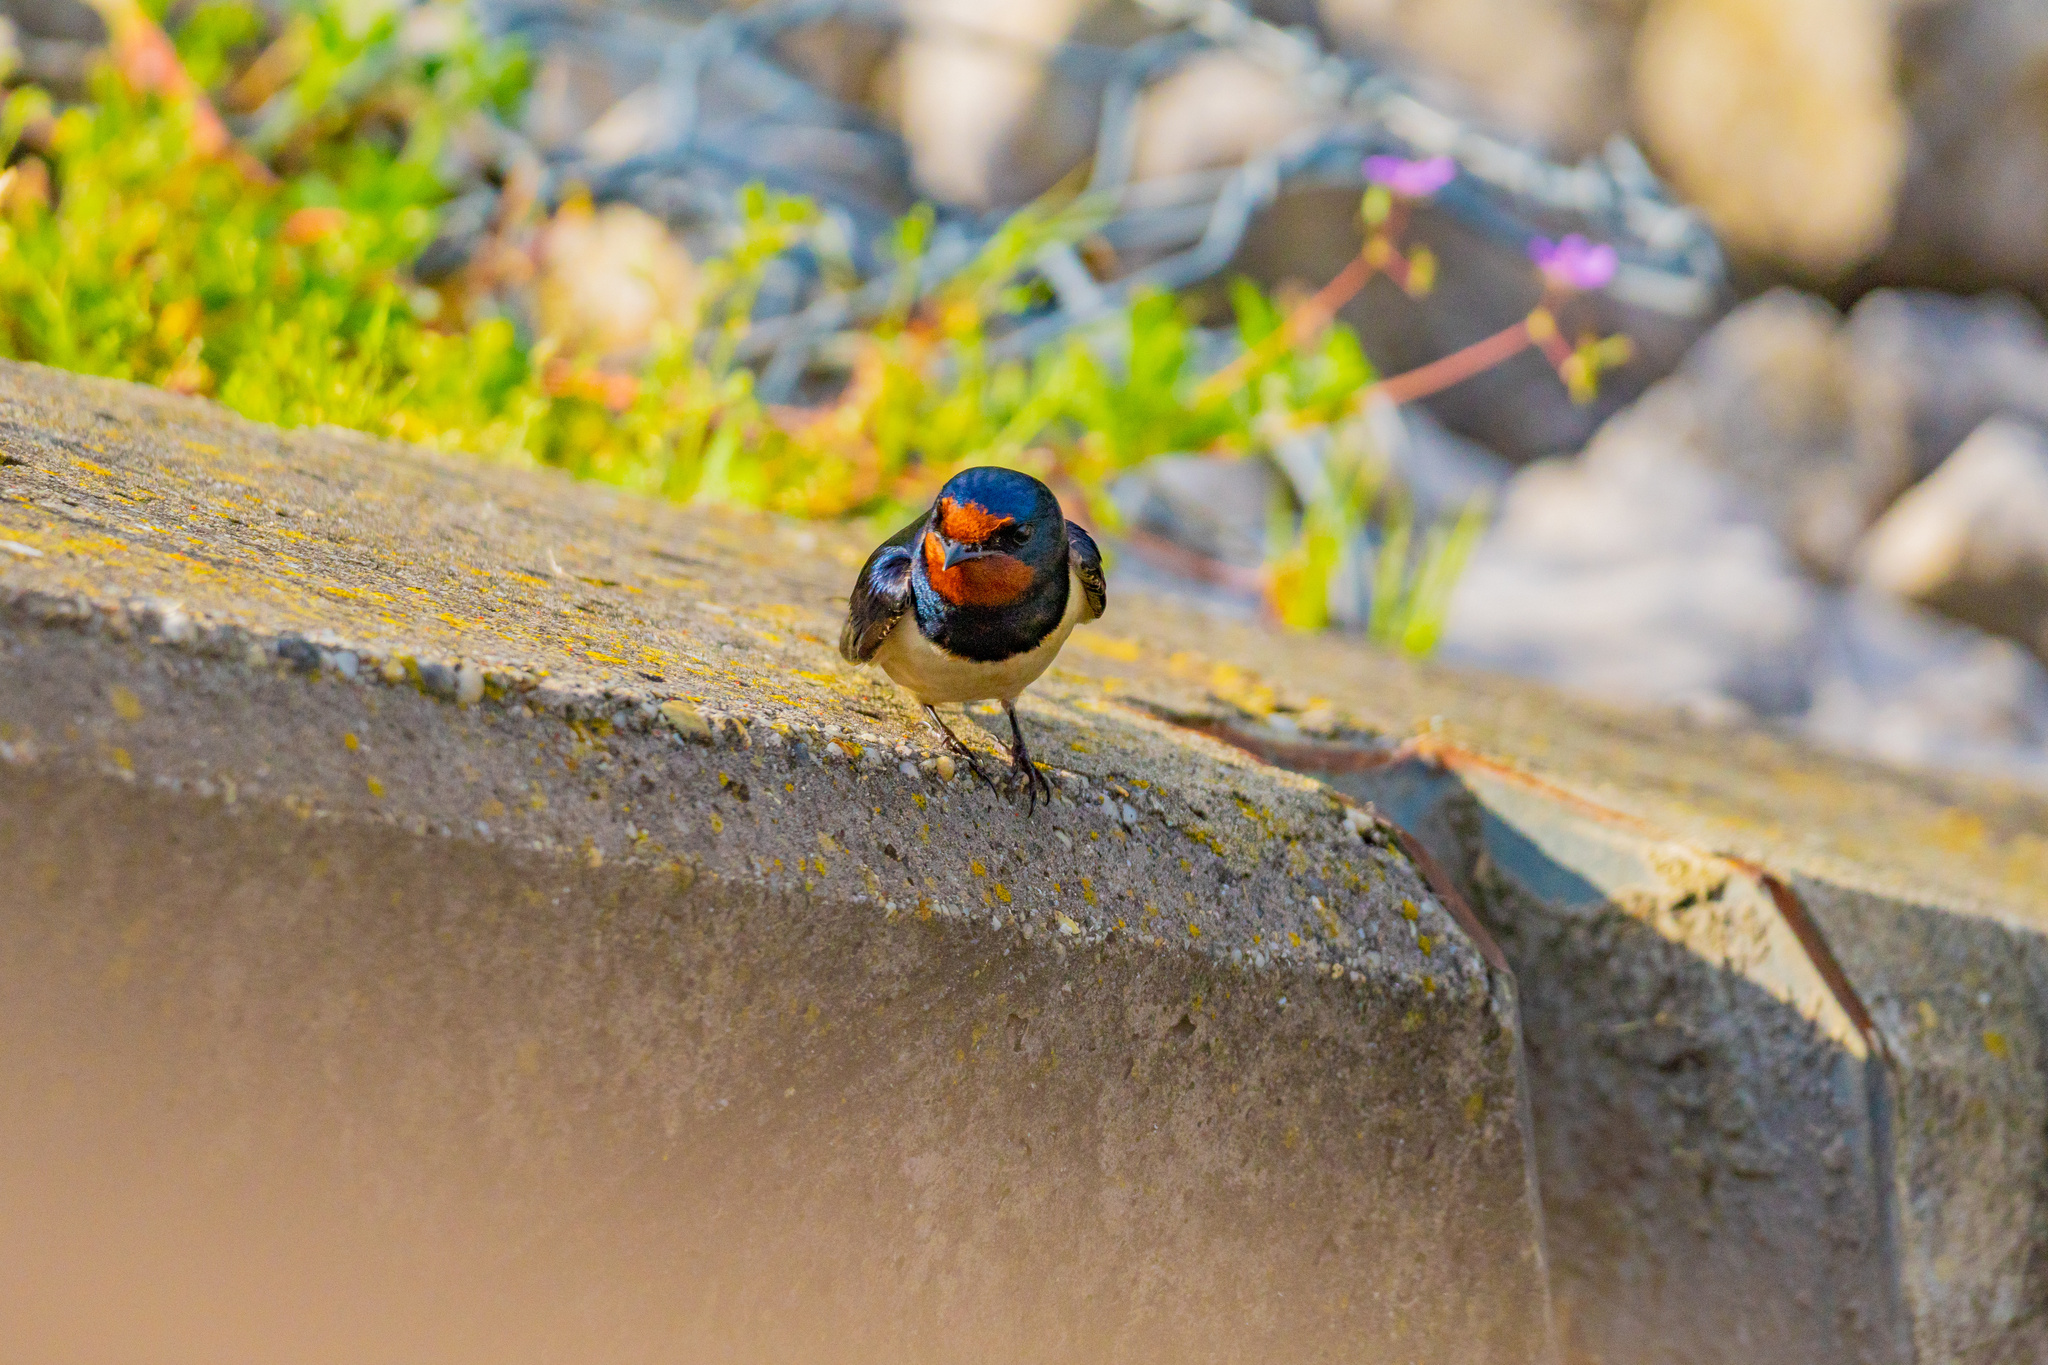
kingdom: Animalia
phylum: Chordata
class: Aves
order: Passeriformes
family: Hirundinidae
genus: Hirundo
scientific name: Hirundo rustica
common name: Barn swallow
